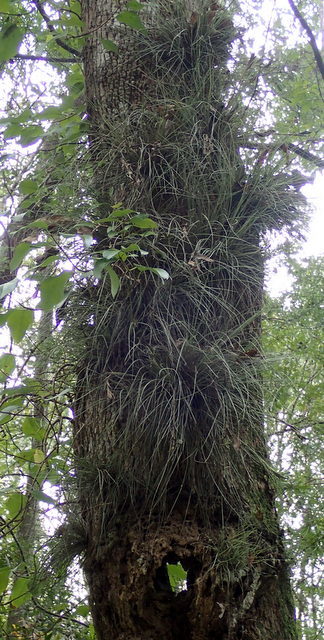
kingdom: Plantae
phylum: Tracheophyta
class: Liliopsida
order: Poales
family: Bromeliaceae
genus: Tillandsia
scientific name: Tillandsia bartramii
